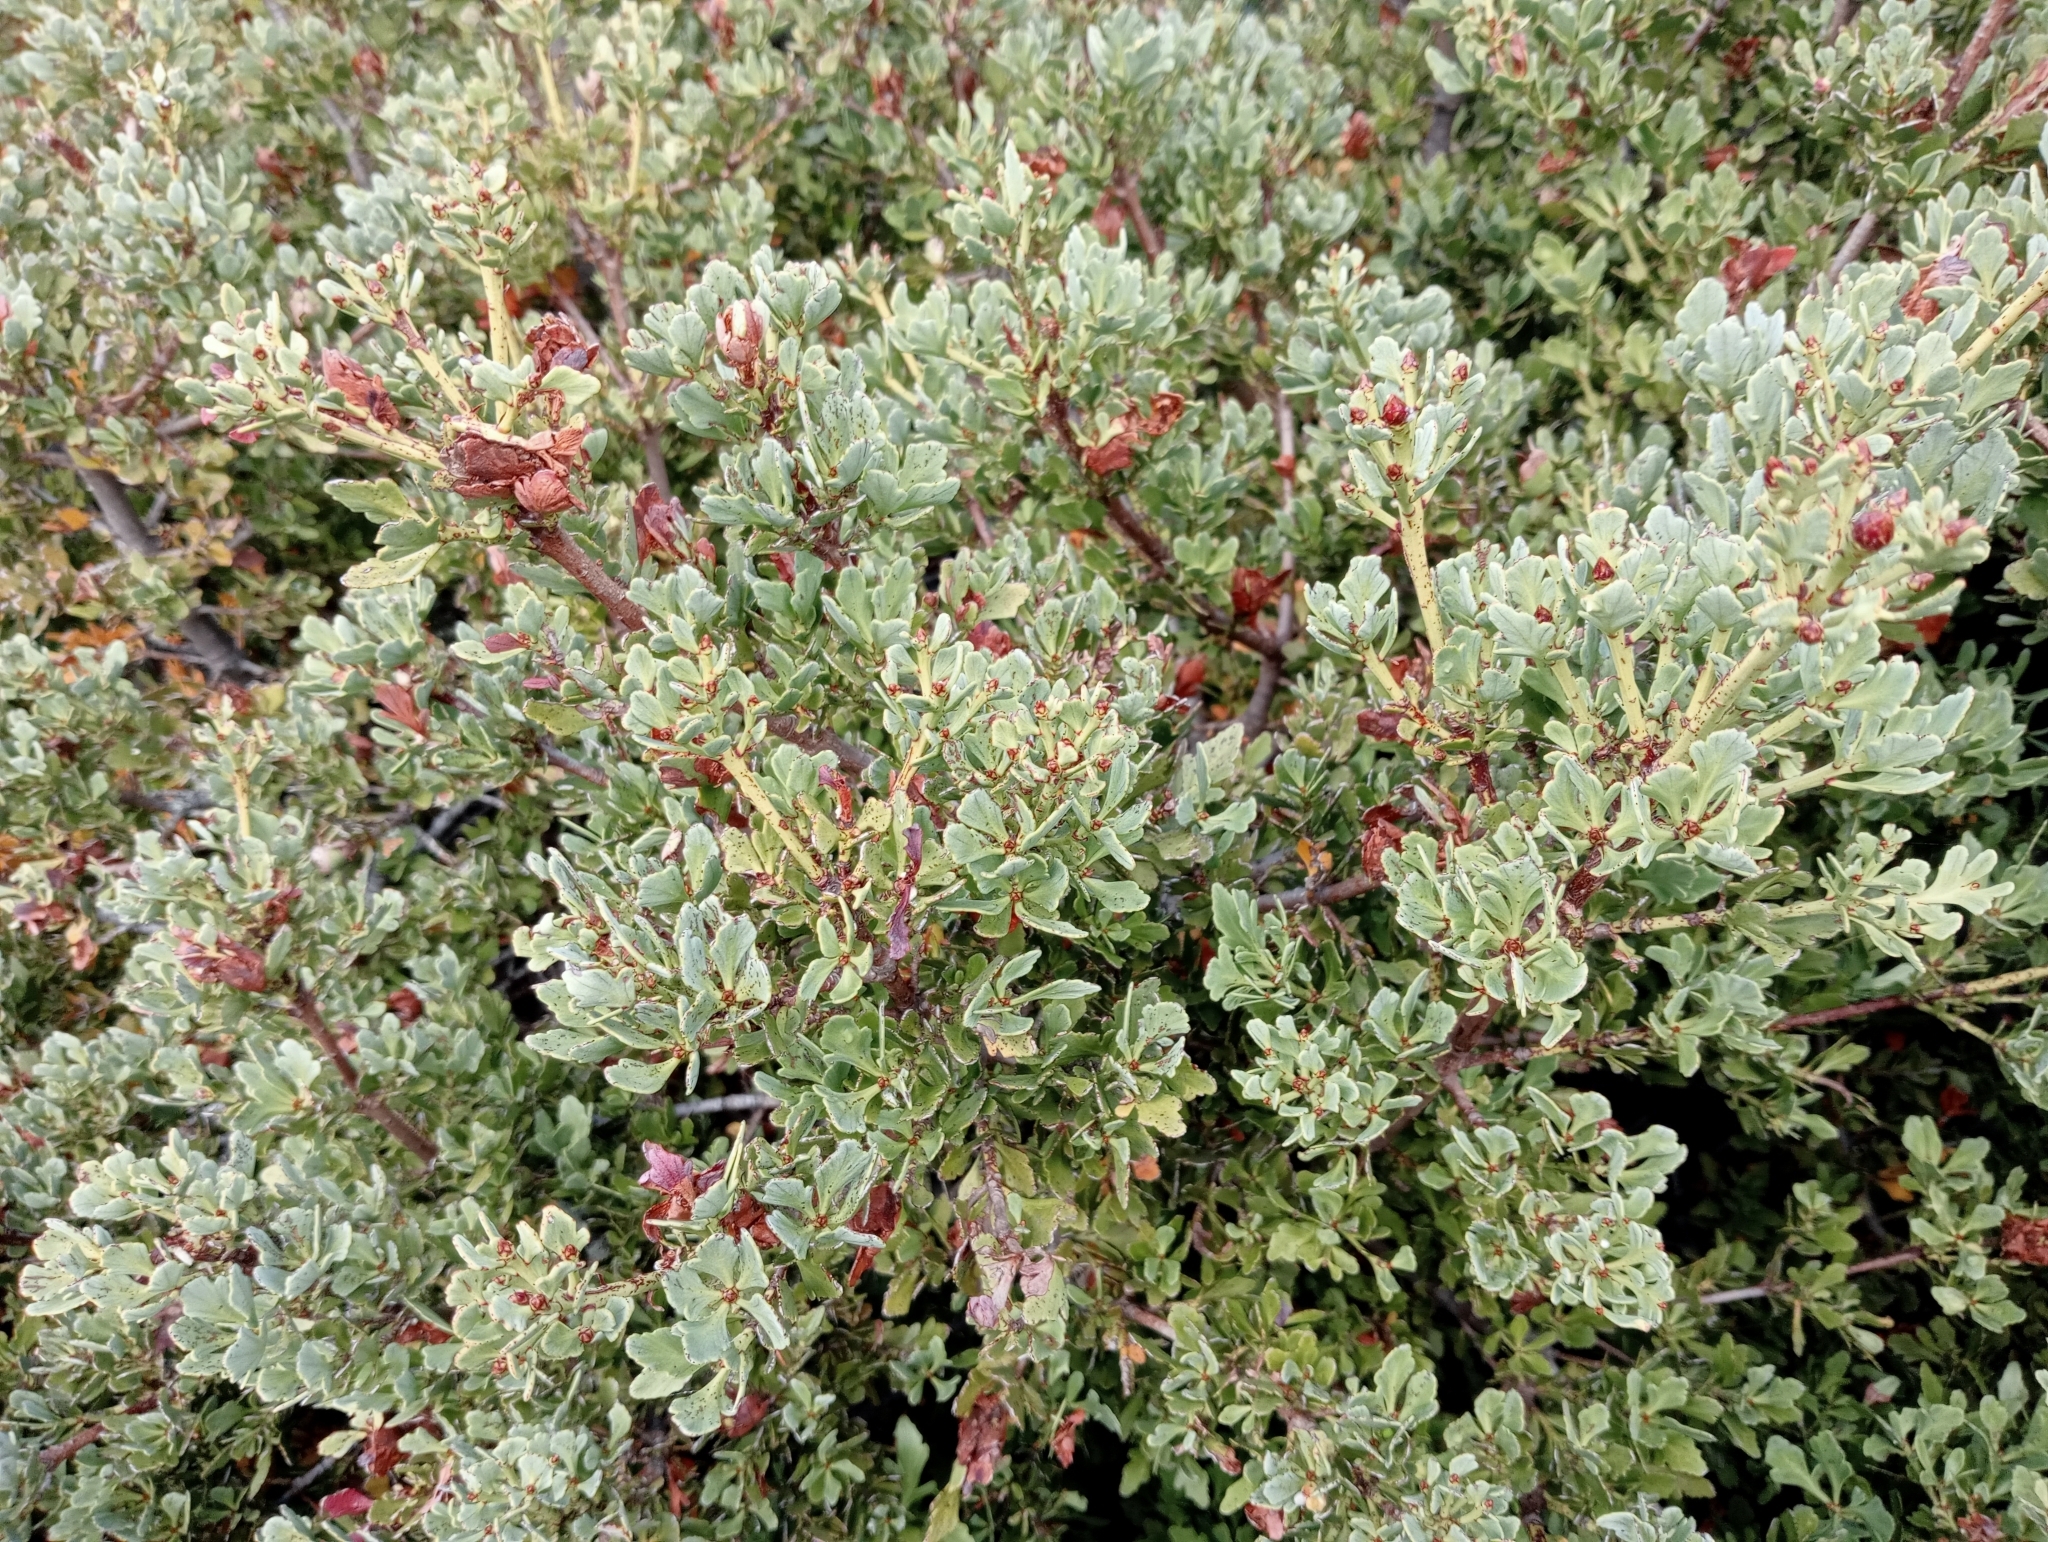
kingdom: Plantae
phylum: Tracheophyta
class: Pinopsida
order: Pinales
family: Phyllocladaceae
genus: Phyllocladus
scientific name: Phyllocladus trichomanoides
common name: Celery pine
